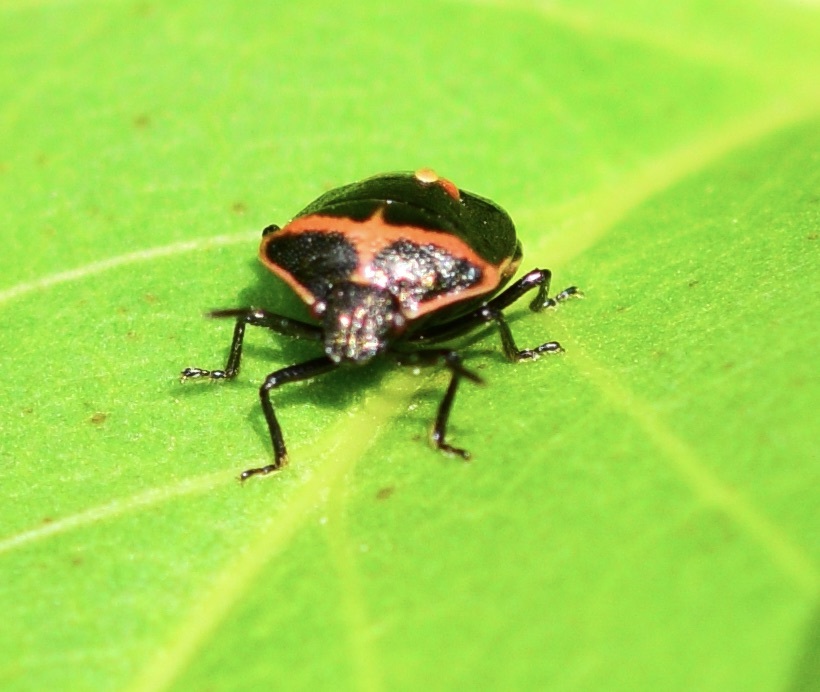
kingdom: Animalia
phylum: Arthropoda
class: Insecta
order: Hemiptera
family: Pentatomidae
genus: Cosmopepla
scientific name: Cosmopepla lintneriana
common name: Twice-stabbed stink bug
